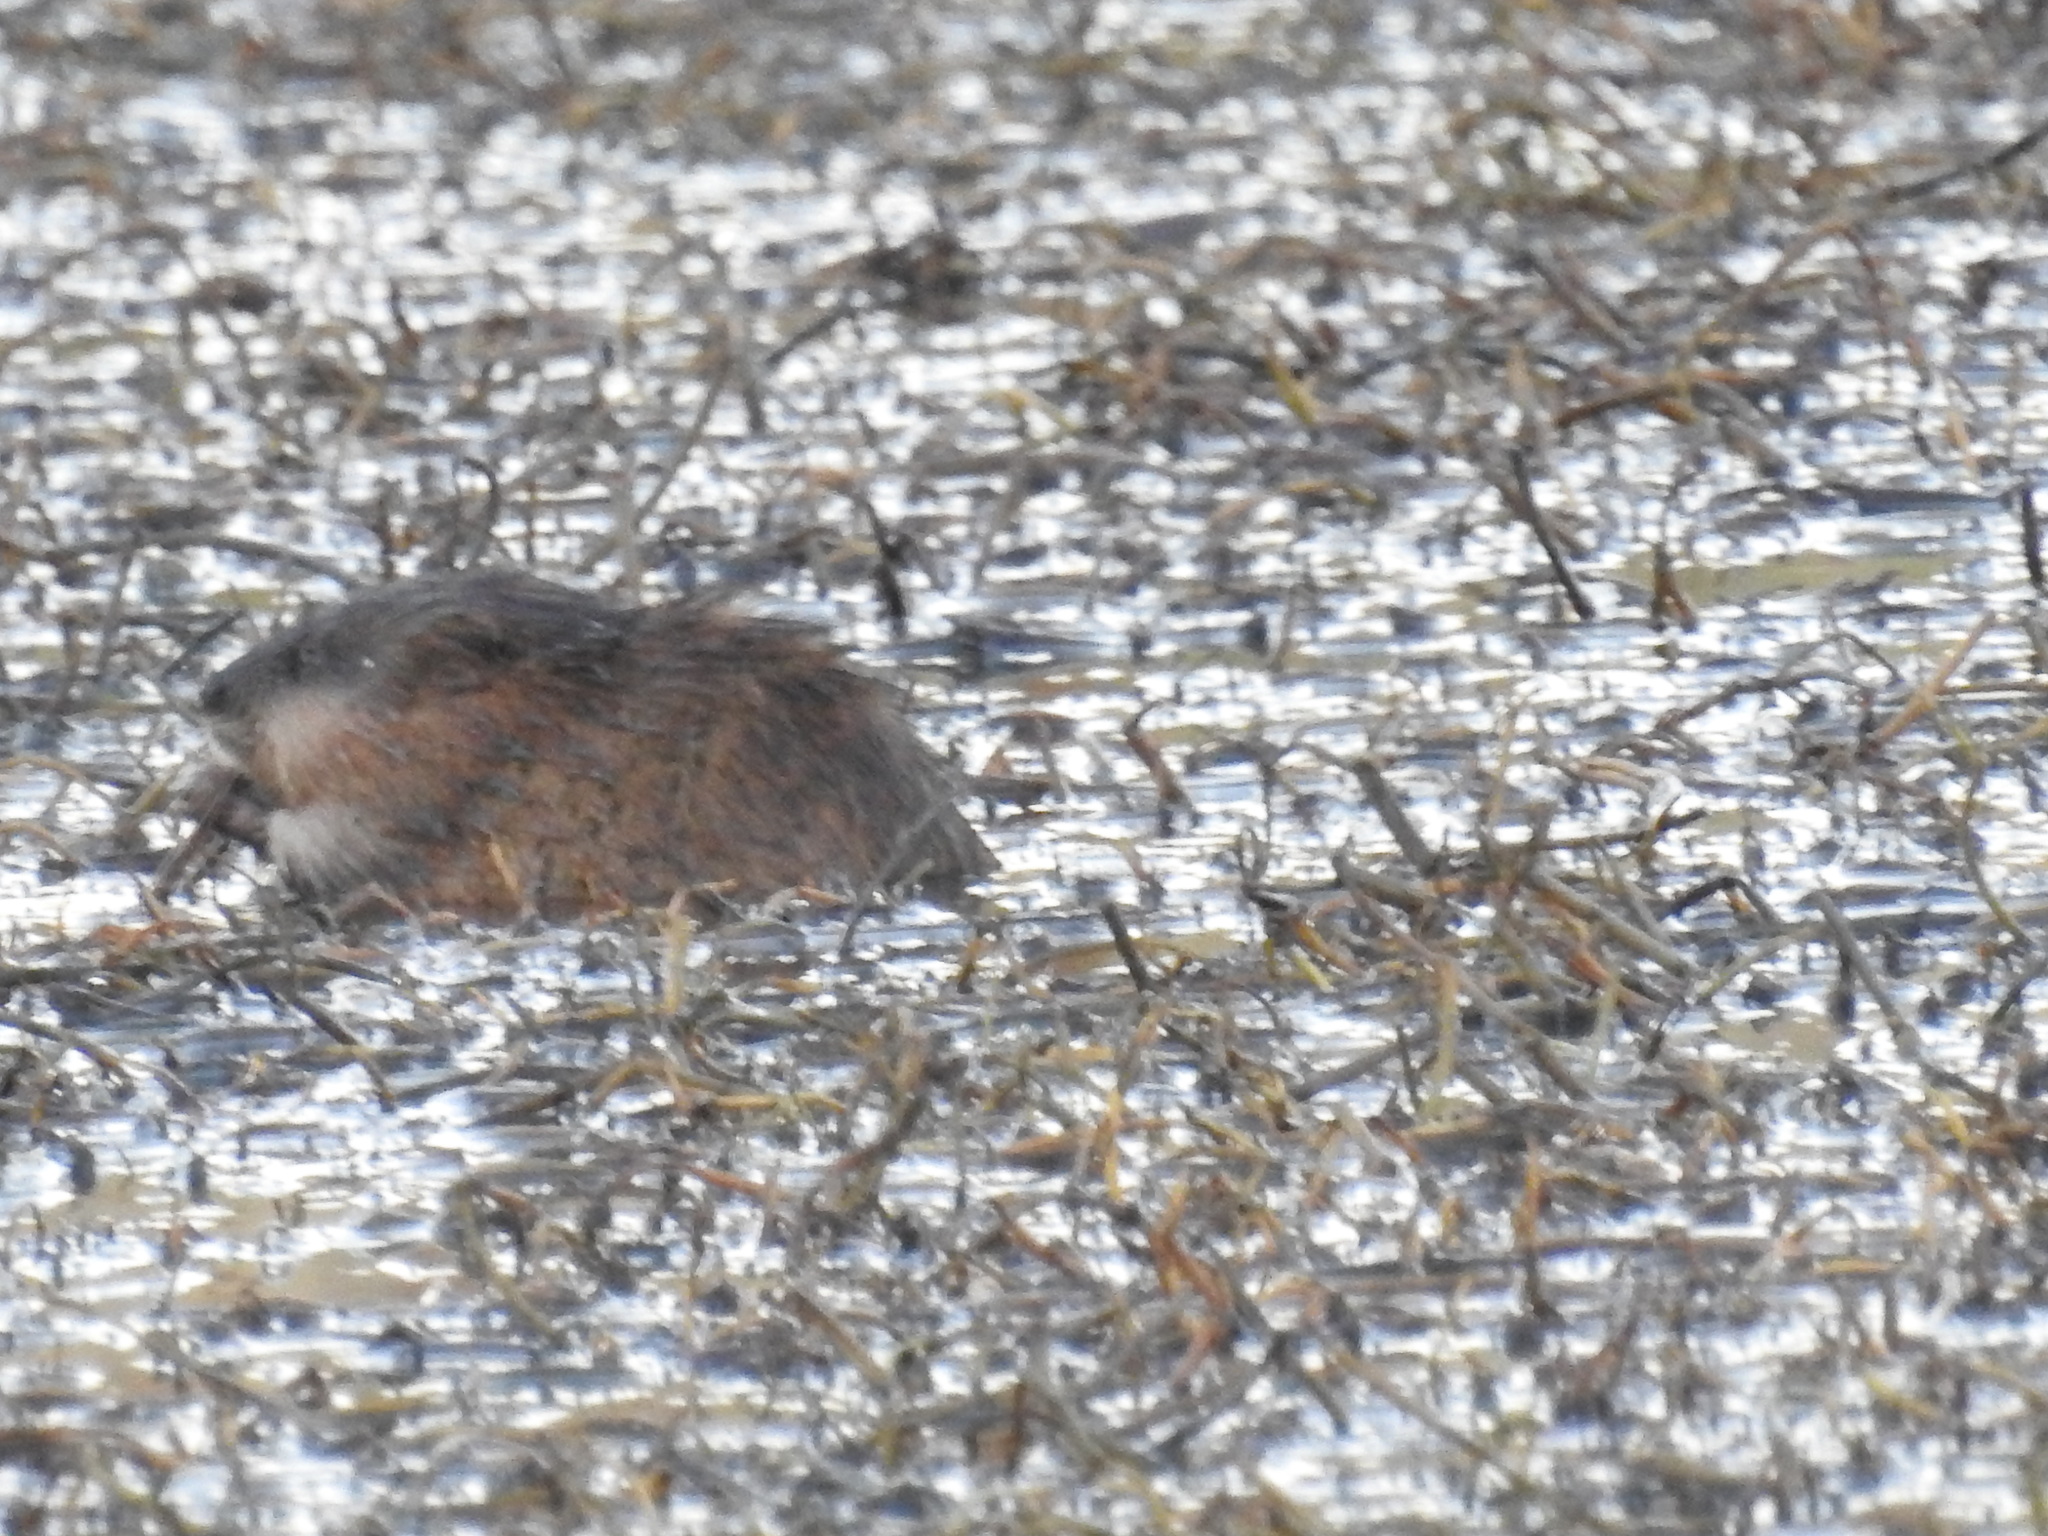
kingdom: Animalia
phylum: Chordata
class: Mammalia
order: Rodentia
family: Cricetidae
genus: Ondatra
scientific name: Ondatra zibethicus
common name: Muskrat
